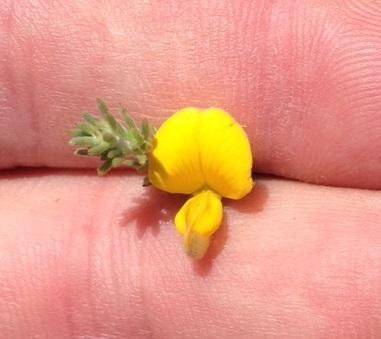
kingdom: Plantae
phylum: Tracheophyta
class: Magnoliopsida
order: Fabales
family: Fabaceae
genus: Aspalathus
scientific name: Aspalathus kougaensis
